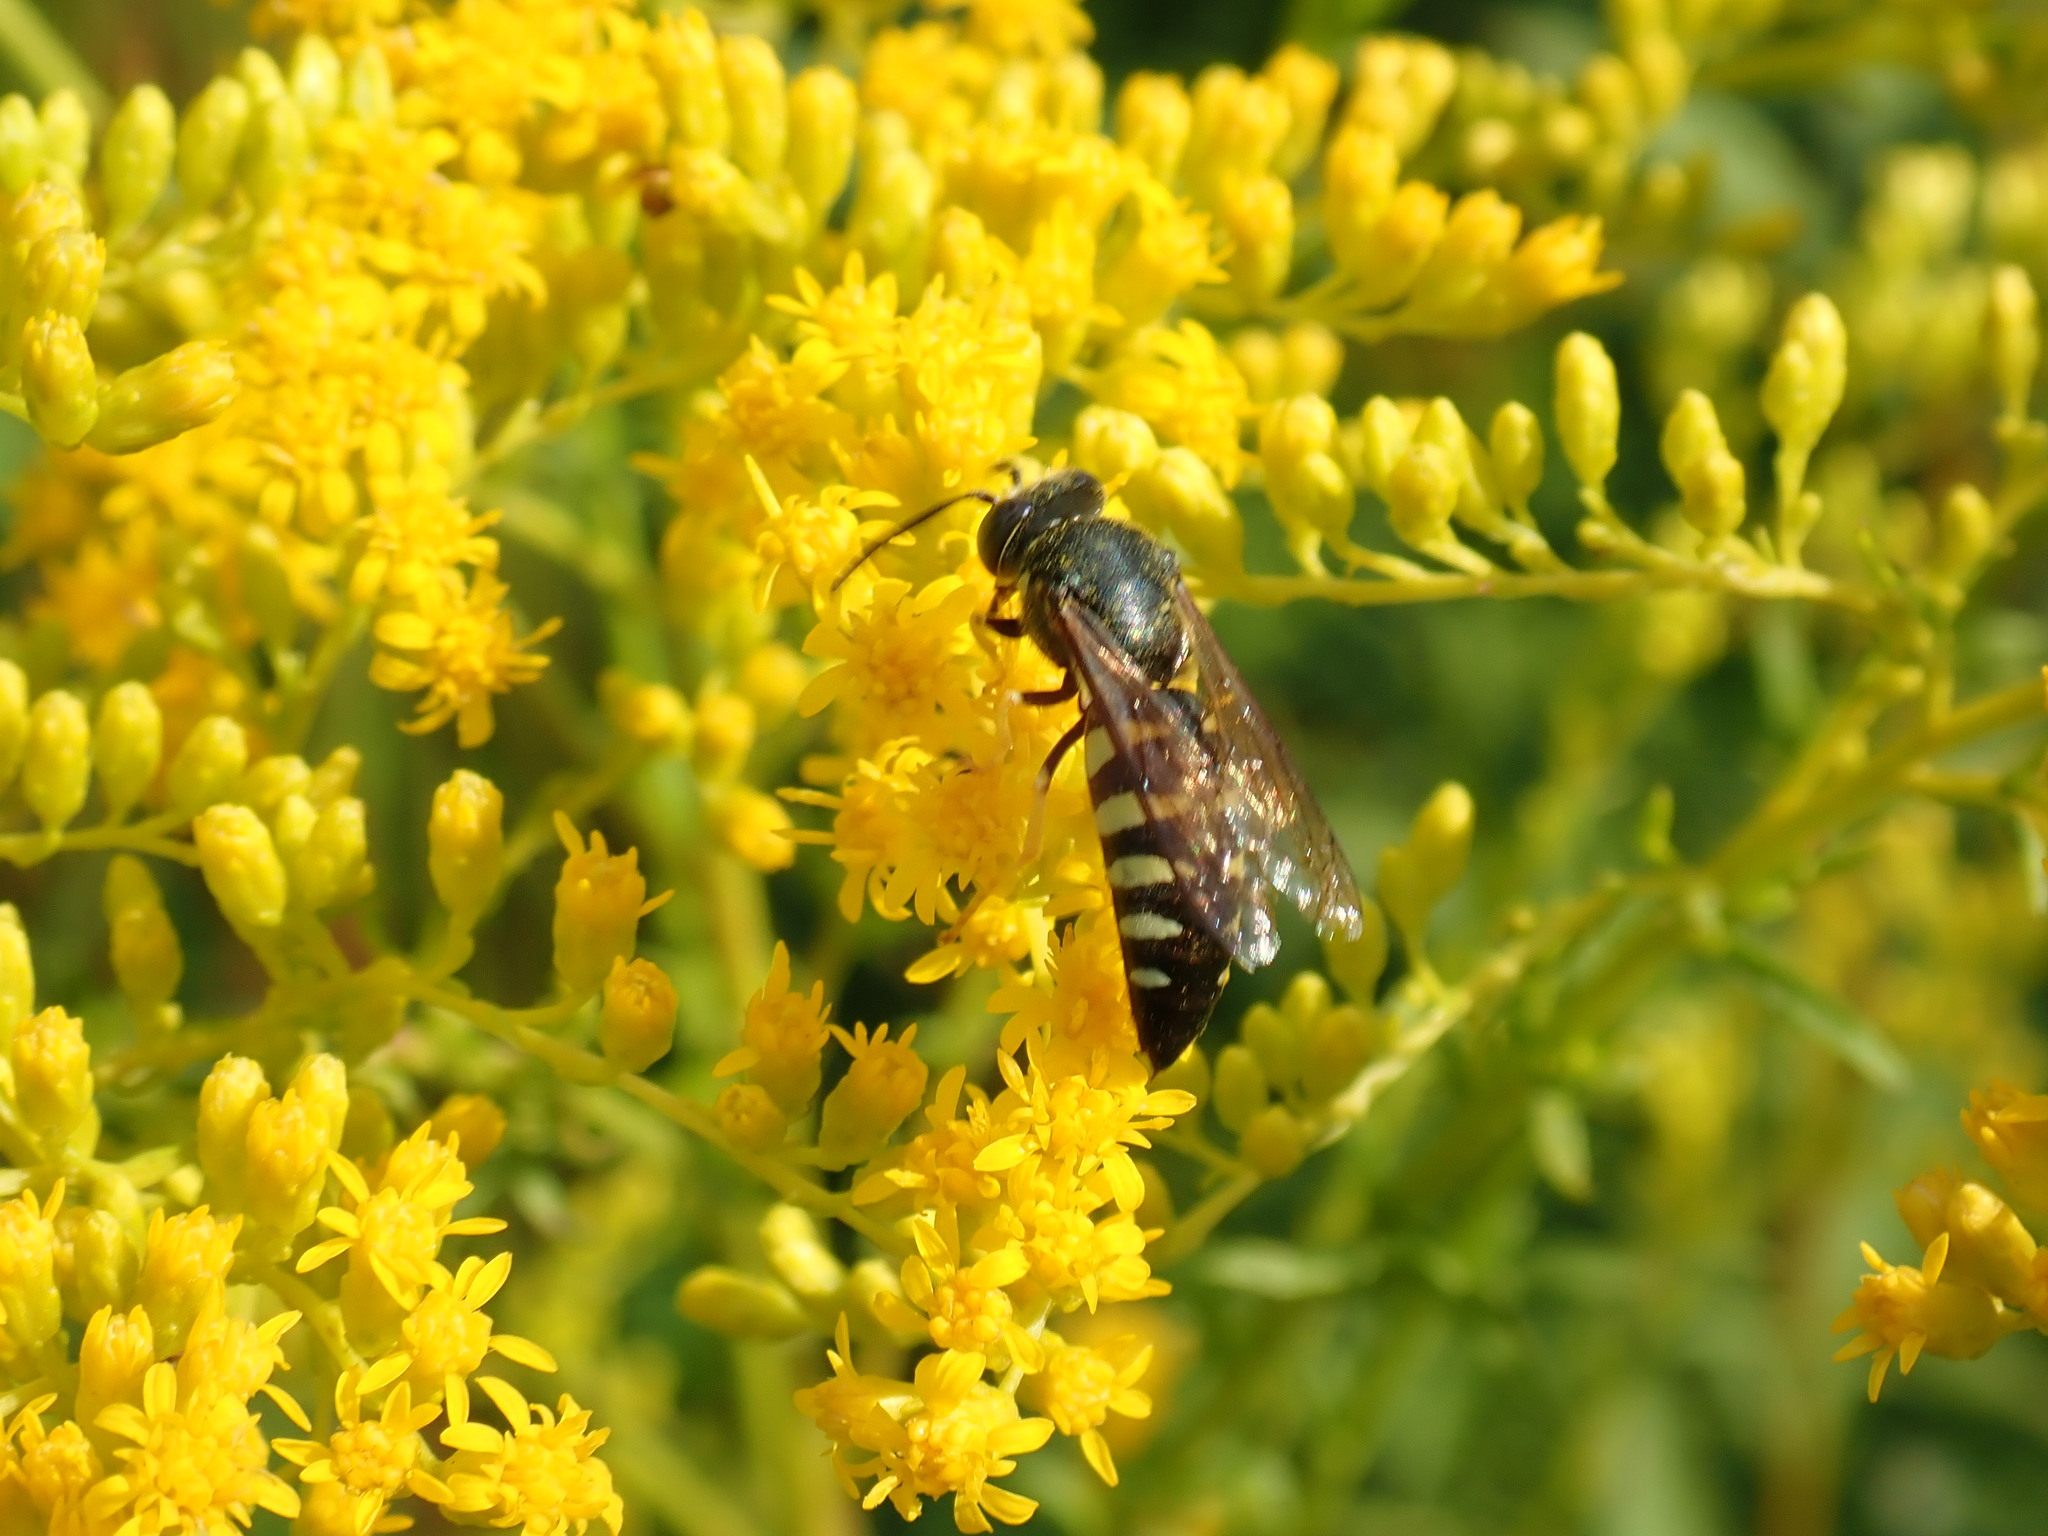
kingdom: Animalia
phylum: Arthropoda
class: Insecta
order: Hymenoptera
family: Crabronidae
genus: Bicyrtes
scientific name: Bicyrtes quadrifasciatus
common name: Four-banded stink bug hunter wasp
